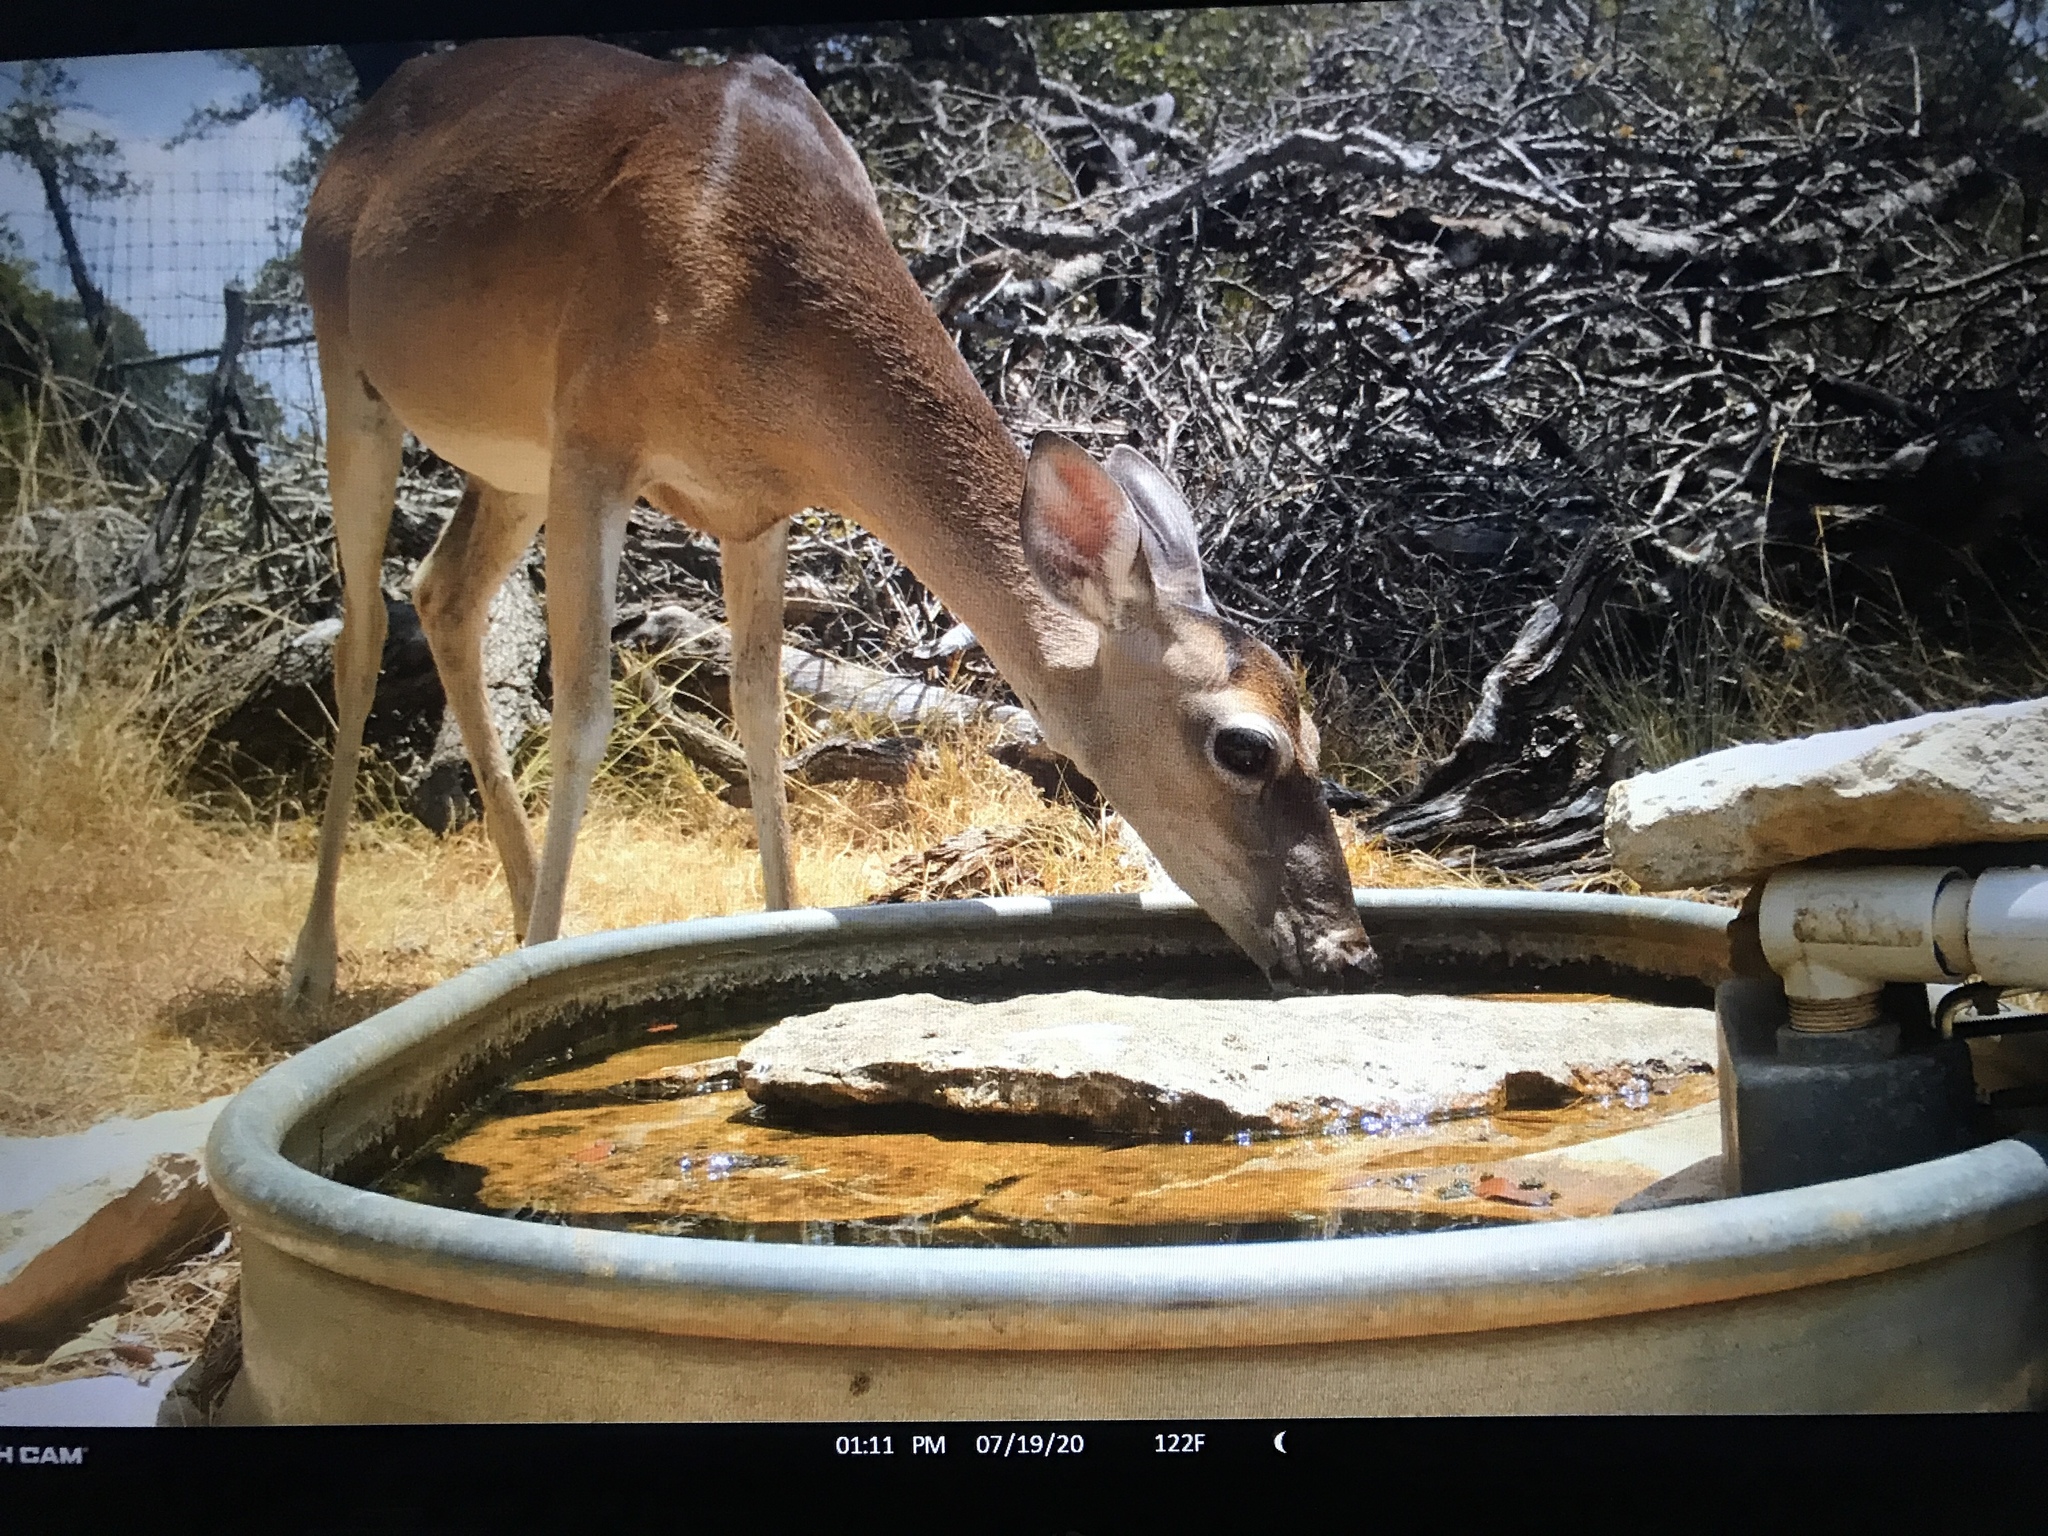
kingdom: Animalia
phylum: Chordata
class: Mammalia
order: Artiodactyla
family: Cervidae
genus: Odocoileus
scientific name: Odocoileus virginianus
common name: White-tailed deer
